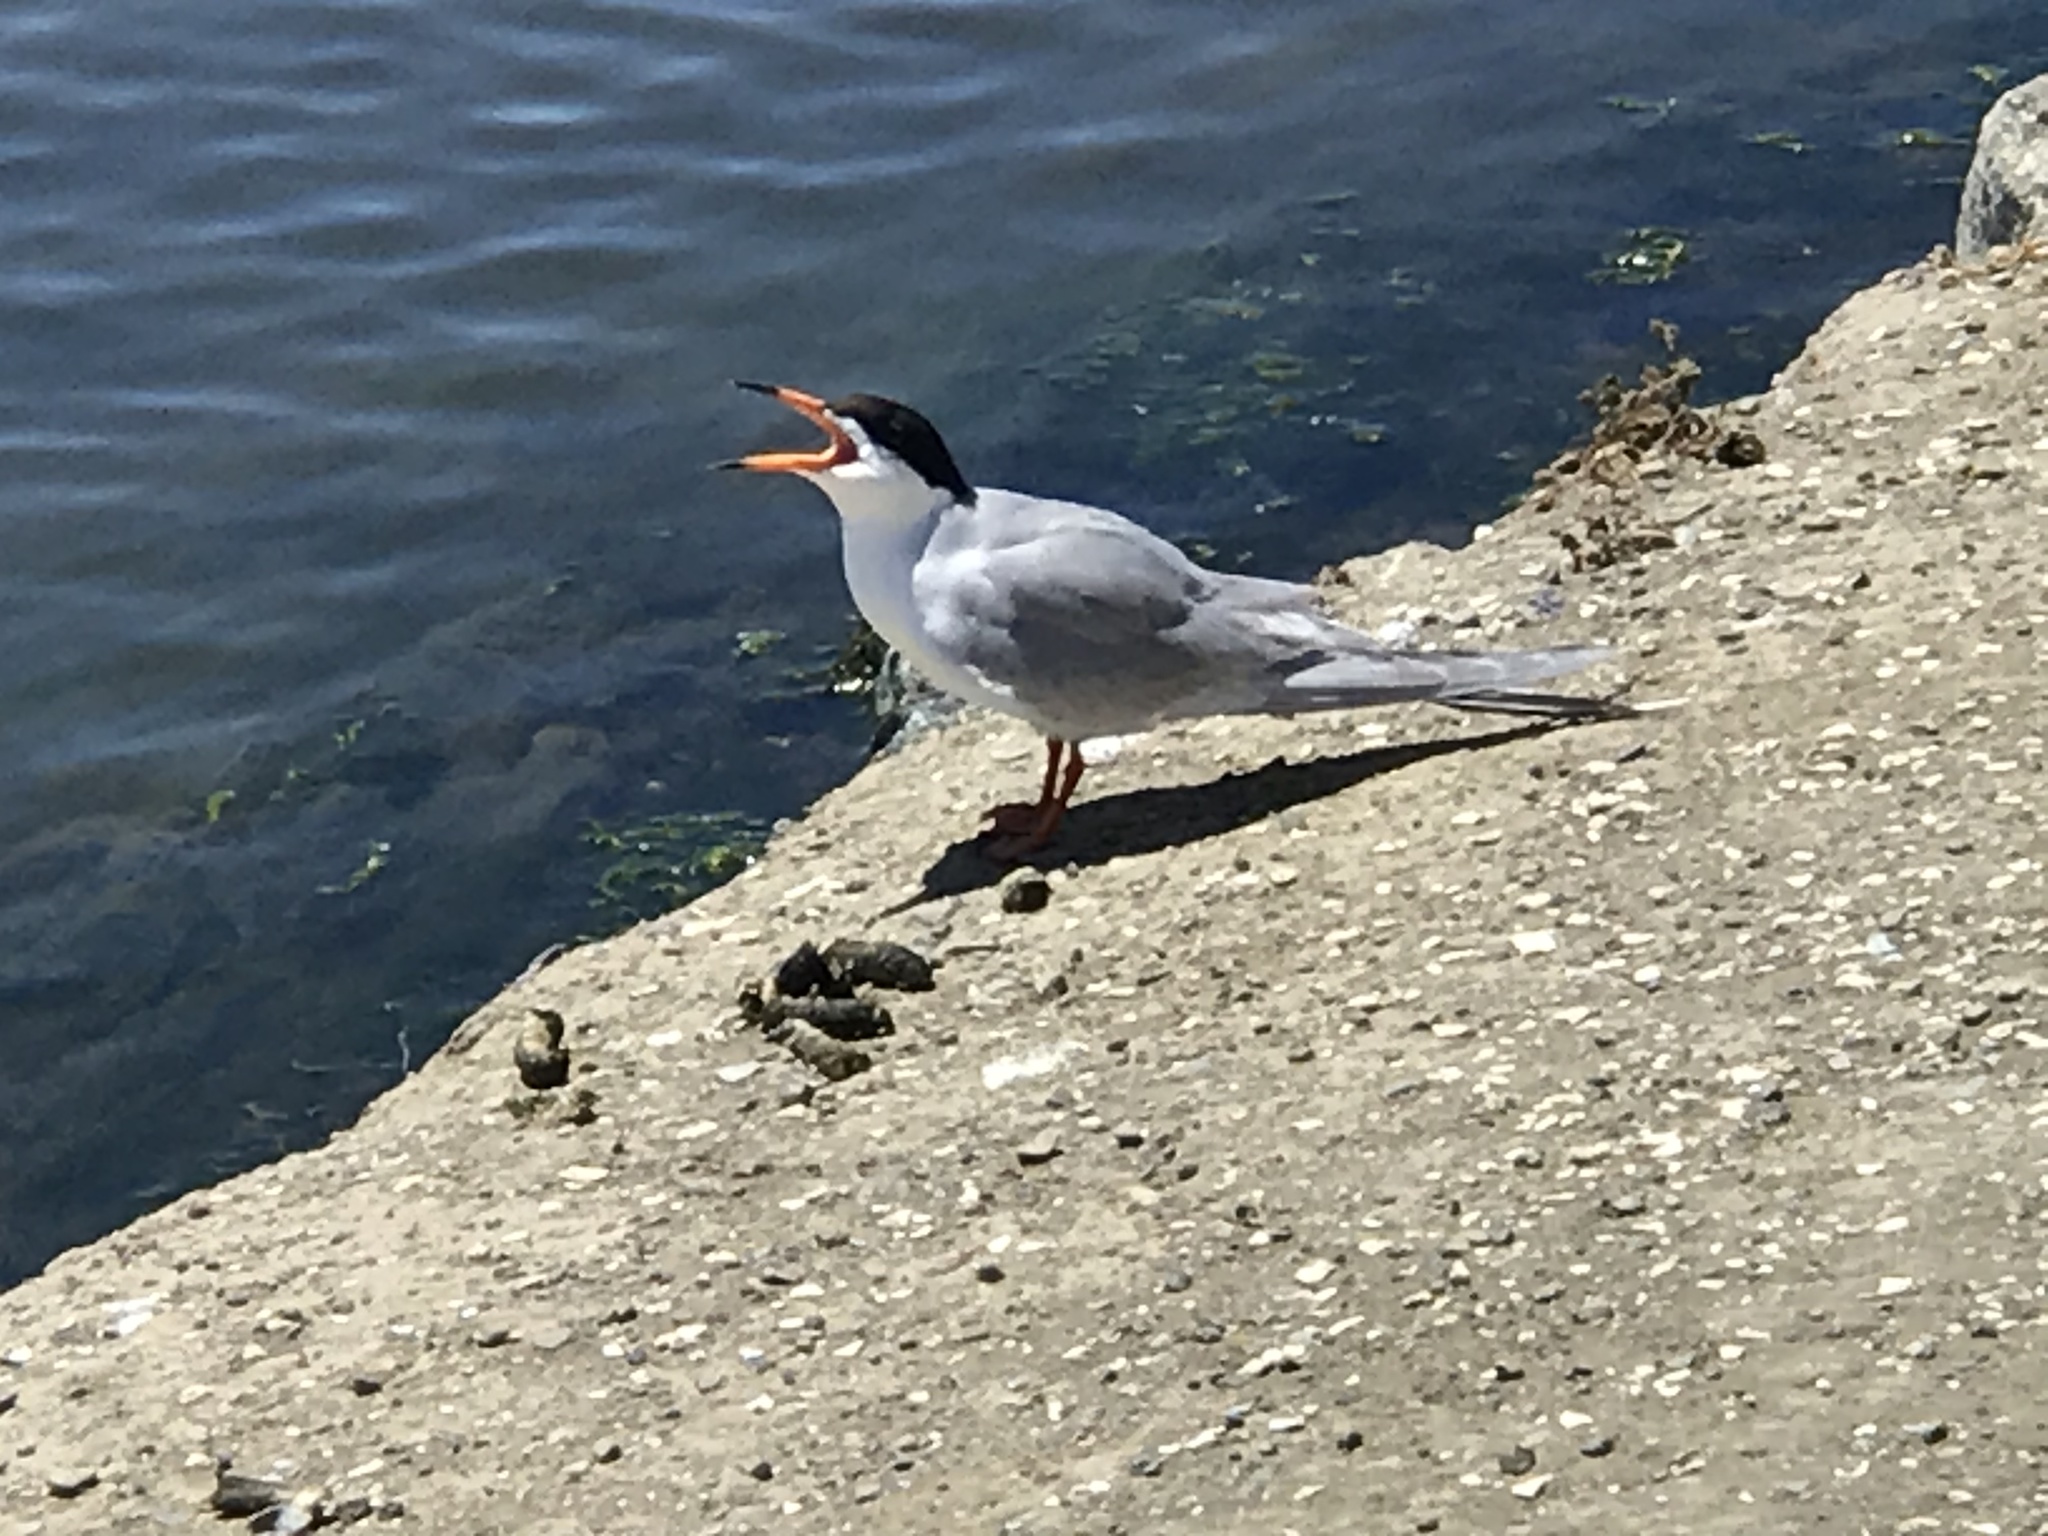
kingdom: Animalia
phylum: Chordata
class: Aves
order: Charadriiformes
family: Laridae
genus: Sterna
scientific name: Sterna forsteri
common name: Forster's tern
